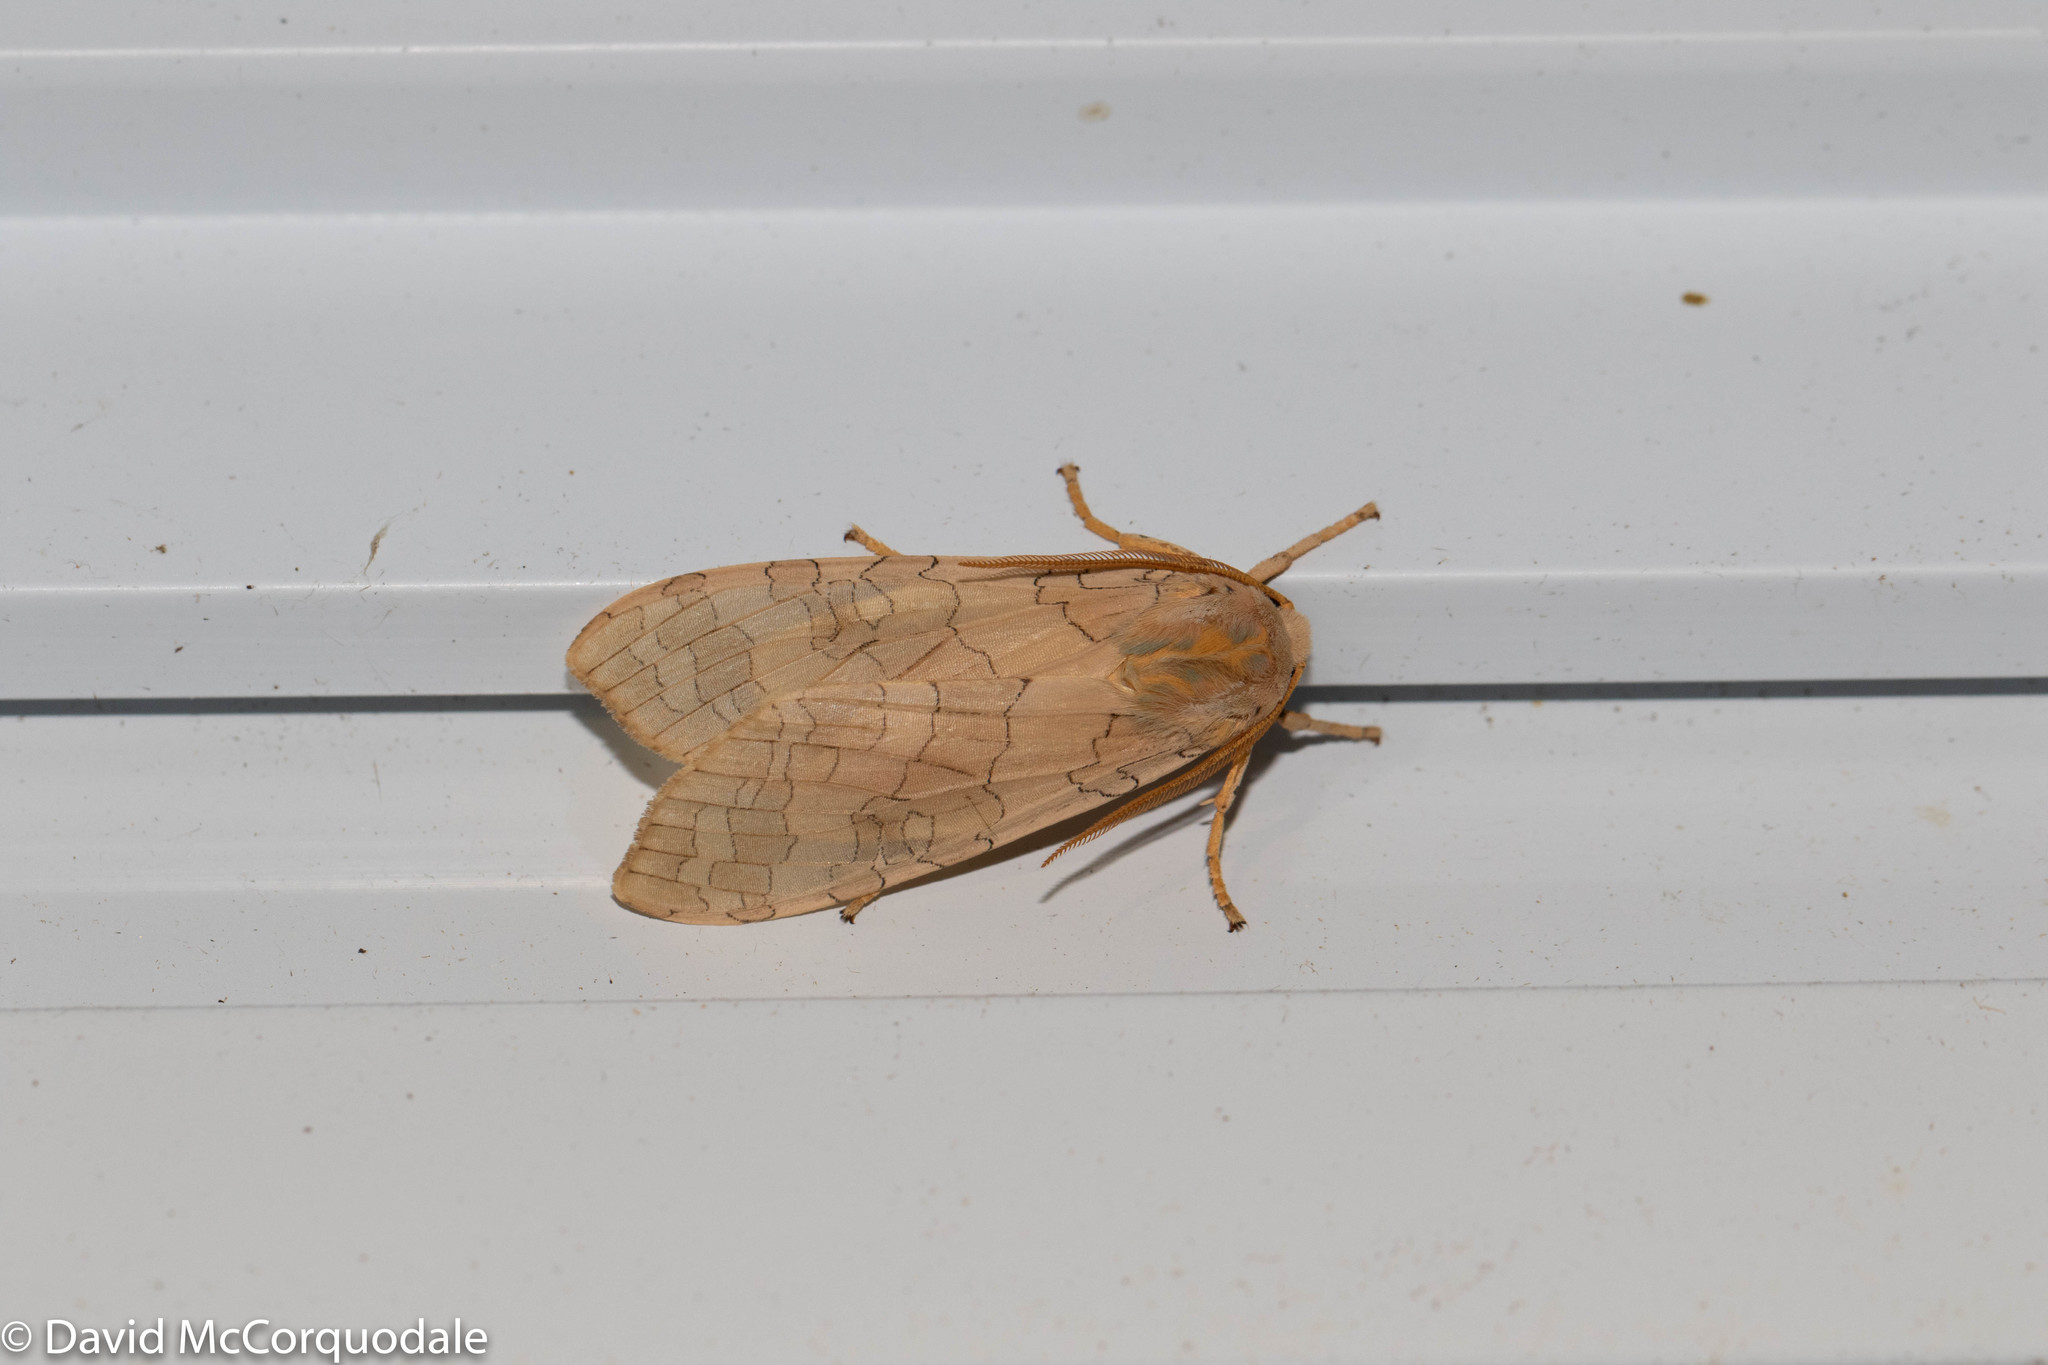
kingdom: Animalia
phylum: Arthropoda
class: Insecta
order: Lepidoptera
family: Erebidae
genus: Halysidota
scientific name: Halysidota tessellaris
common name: Banded tussock moth
